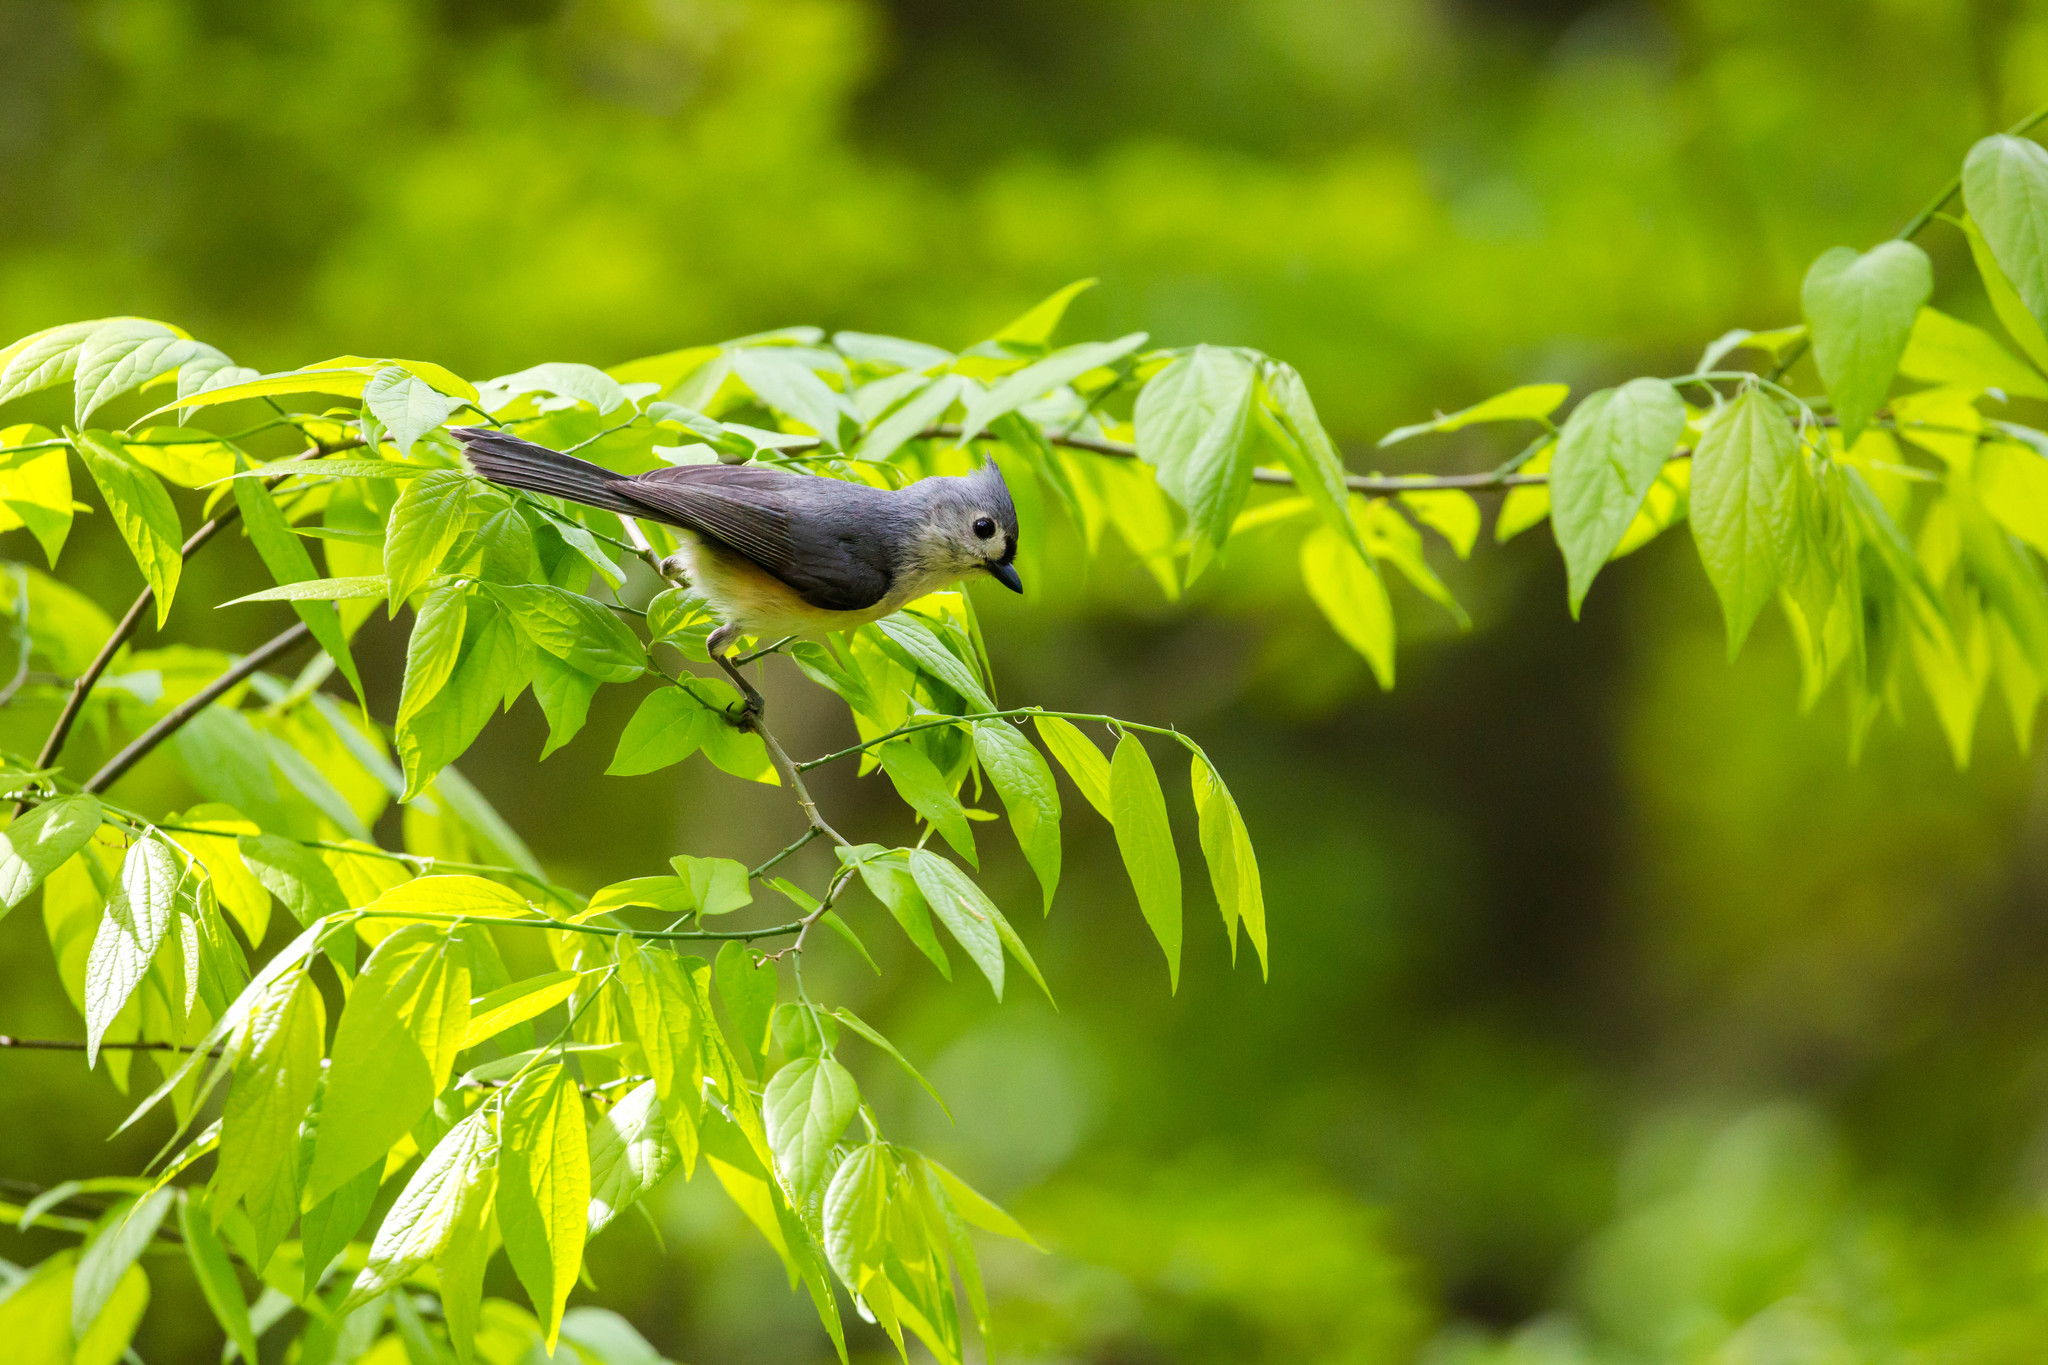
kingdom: Animalia
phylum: Chordata
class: Aves
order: Passeriformes
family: Paridae
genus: Baeolophus
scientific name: Baeolophus bicolor
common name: Tufted titmouse
